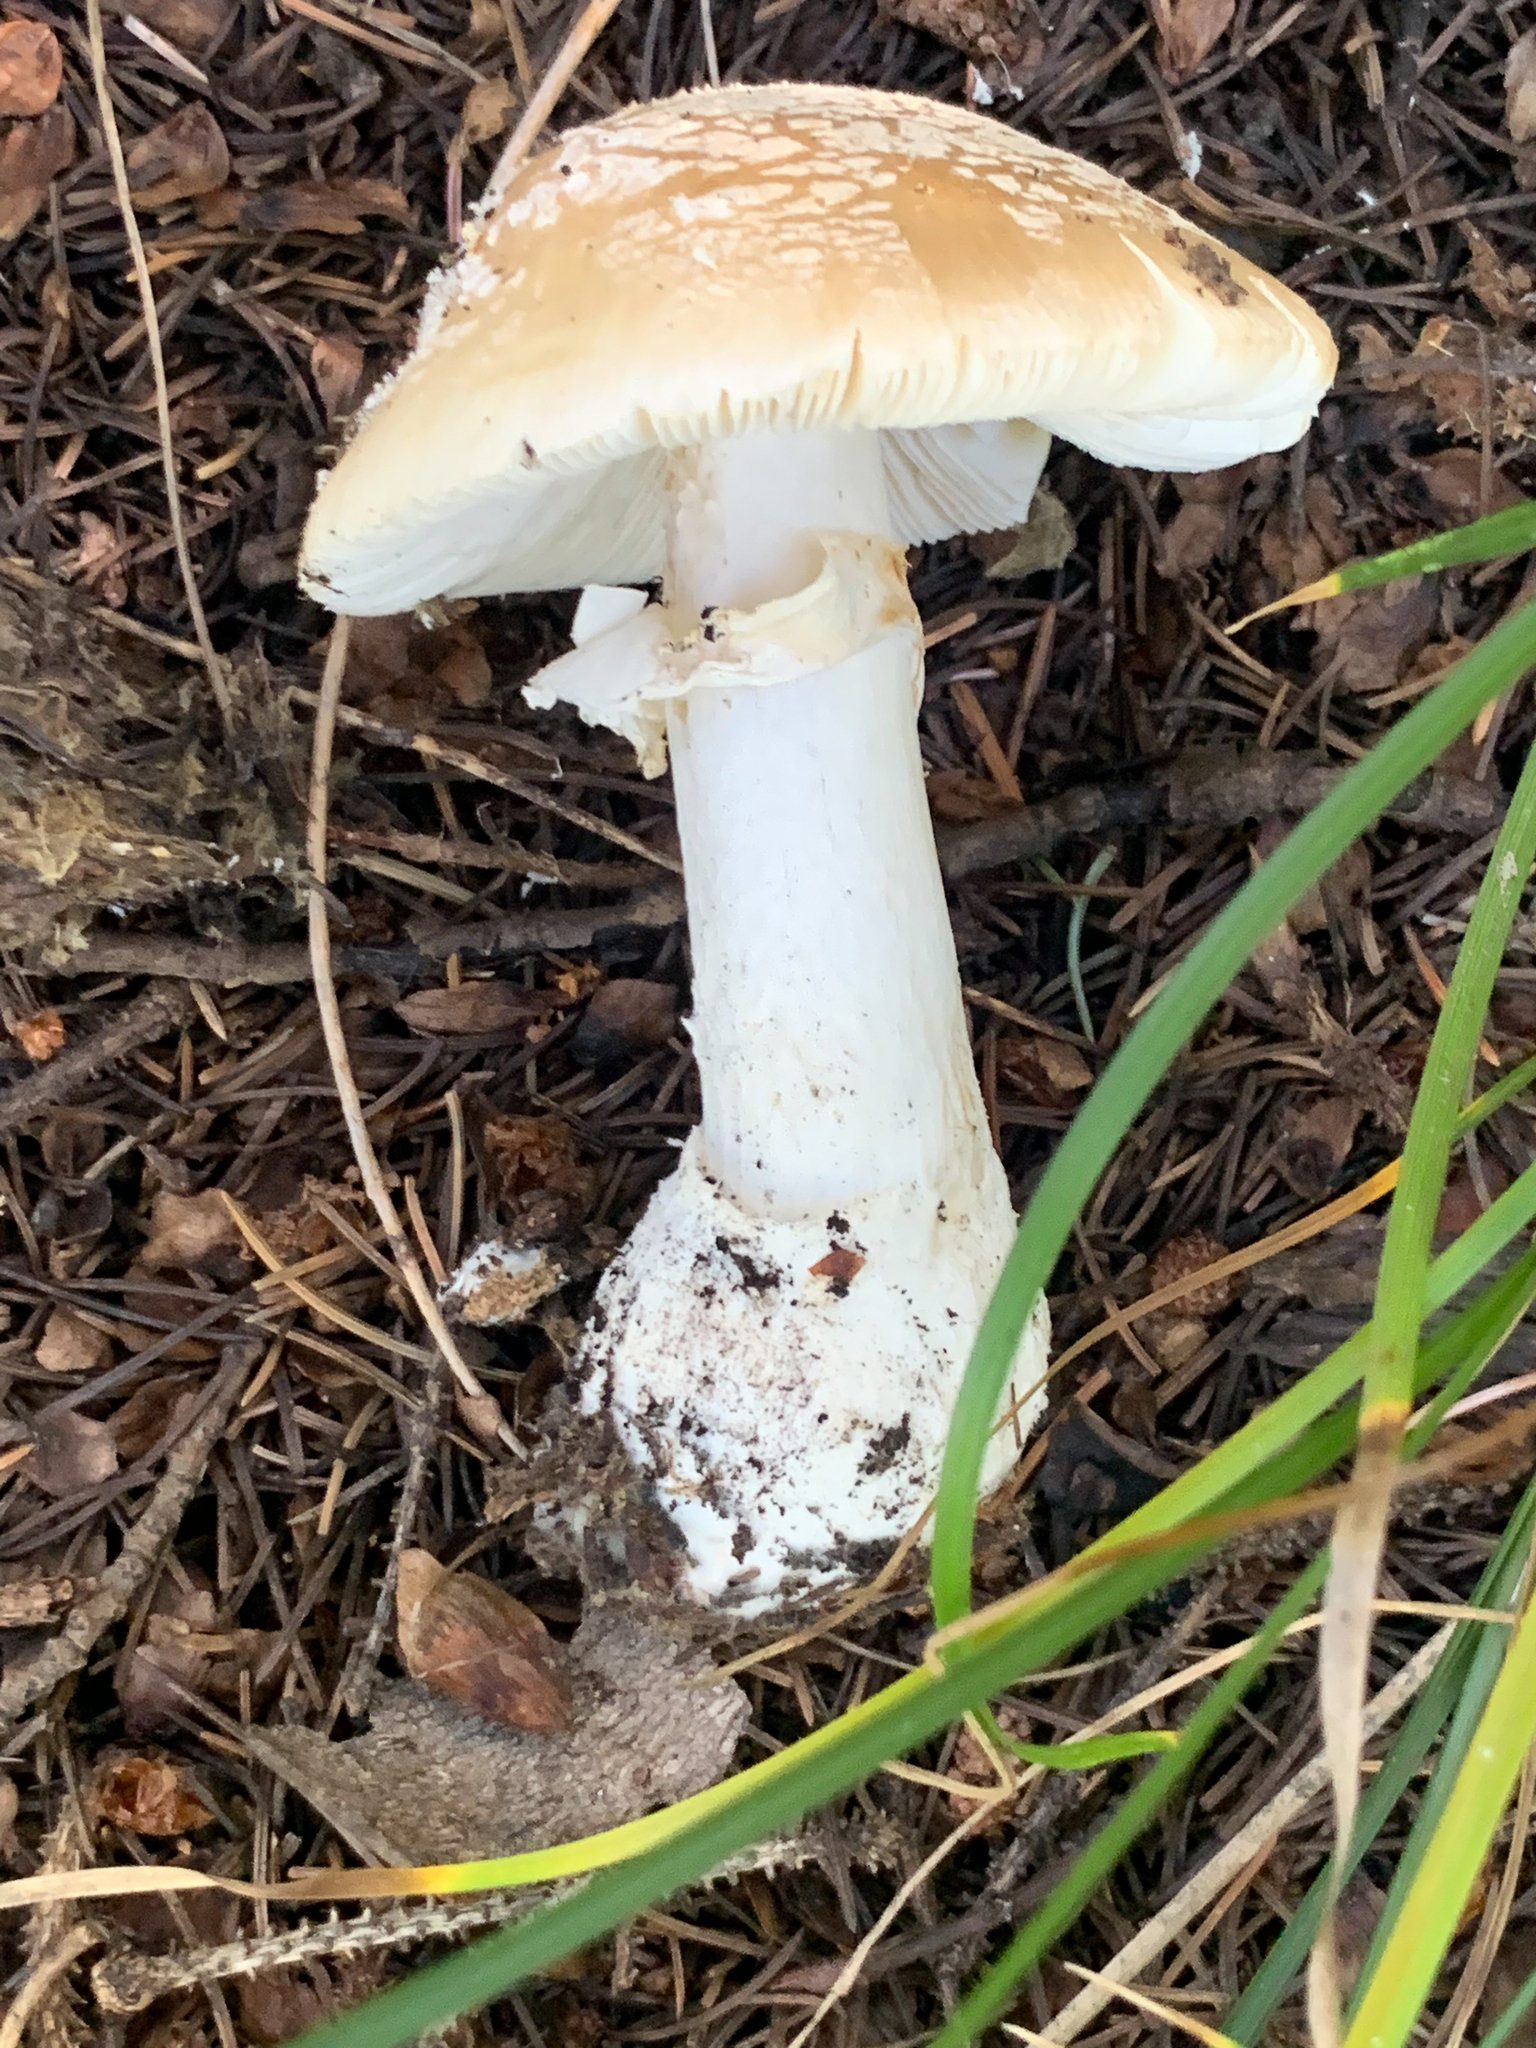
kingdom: Fungi
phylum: Basidiomycota
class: Agaricomycetes
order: Agaricales
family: Amanitaceae
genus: Amanita
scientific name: Amanita pantherinoides
